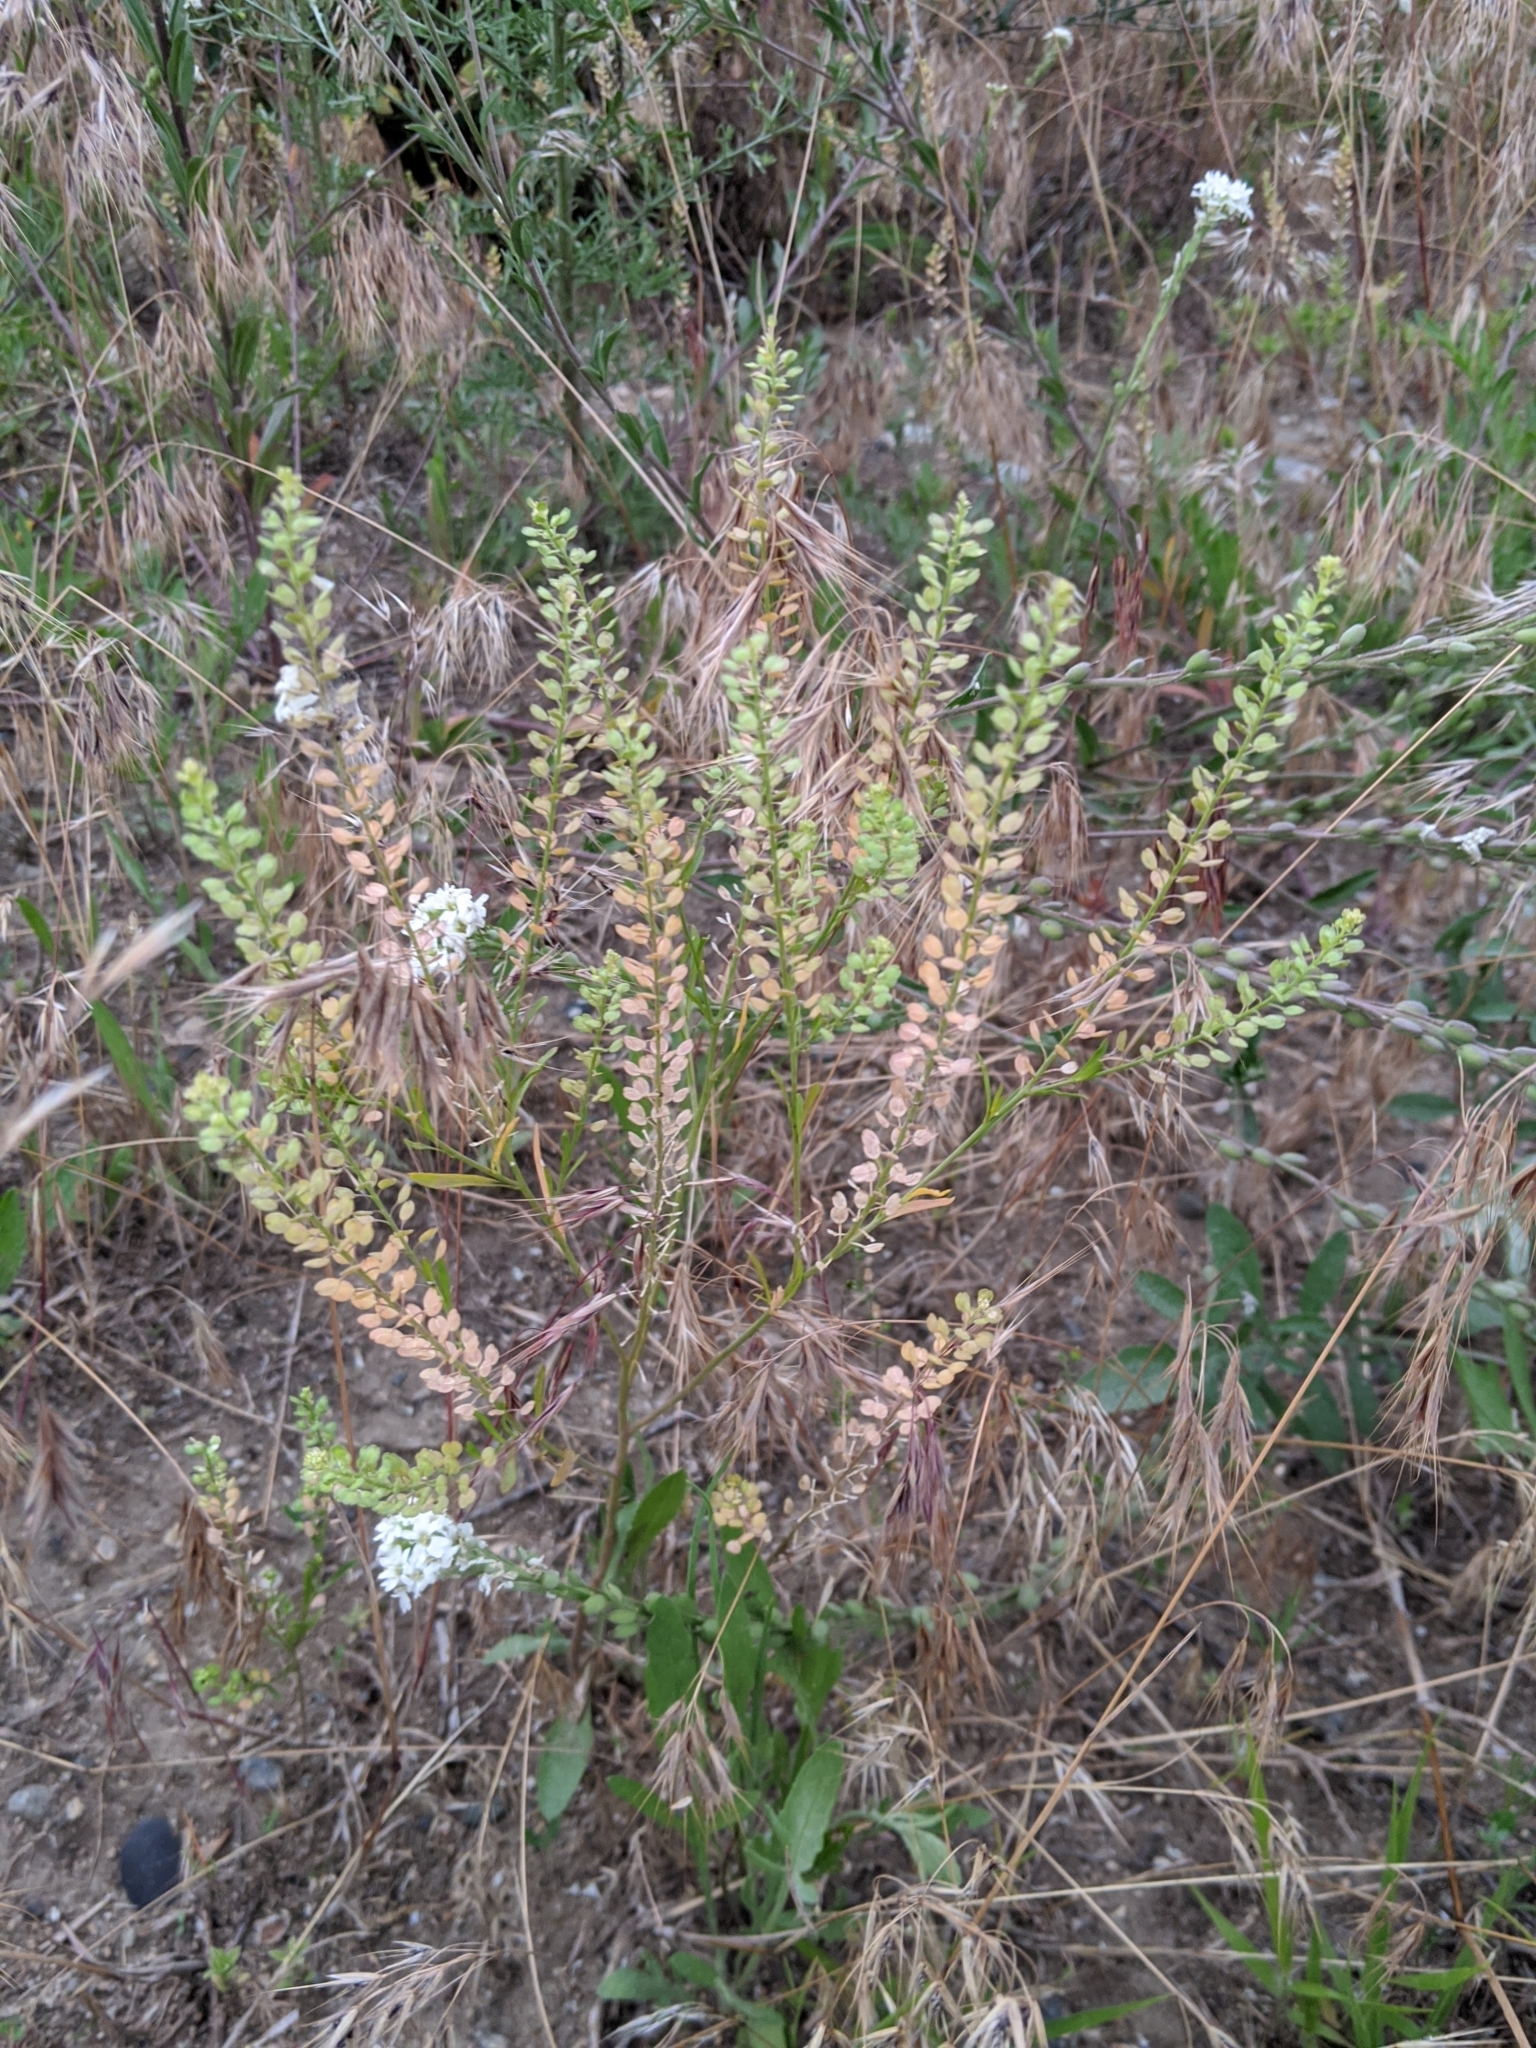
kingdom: Plantae
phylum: Tracheophyta
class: Magnoliopsida
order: Brassicales
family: Brassicaceae
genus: Lepidium
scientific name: Lepidium densiflorum
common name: Miner's pepperwort
